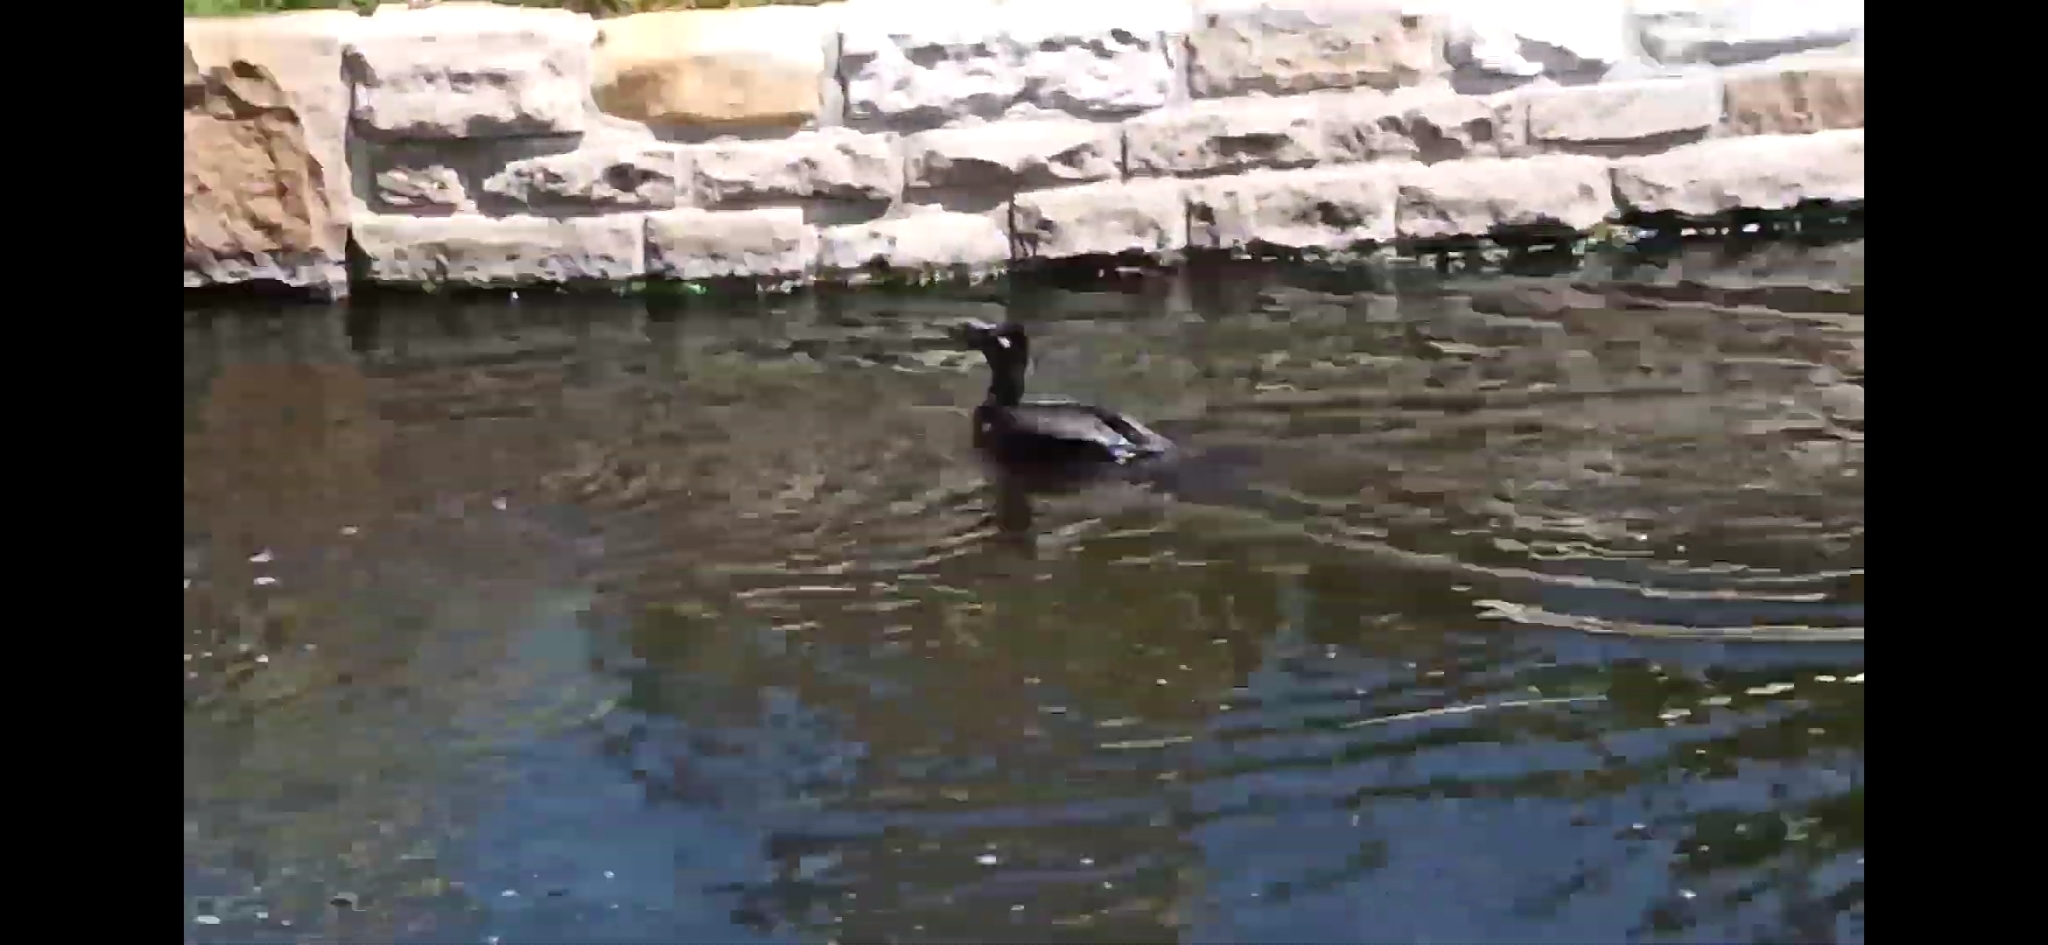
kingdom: Animalia
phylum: Chordata
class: Aves
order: Suliformes
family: Phalacrocoracidae
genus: Phalacrocorax
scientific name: Phalacrocorax sulcirostris
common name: Little black cormorant
